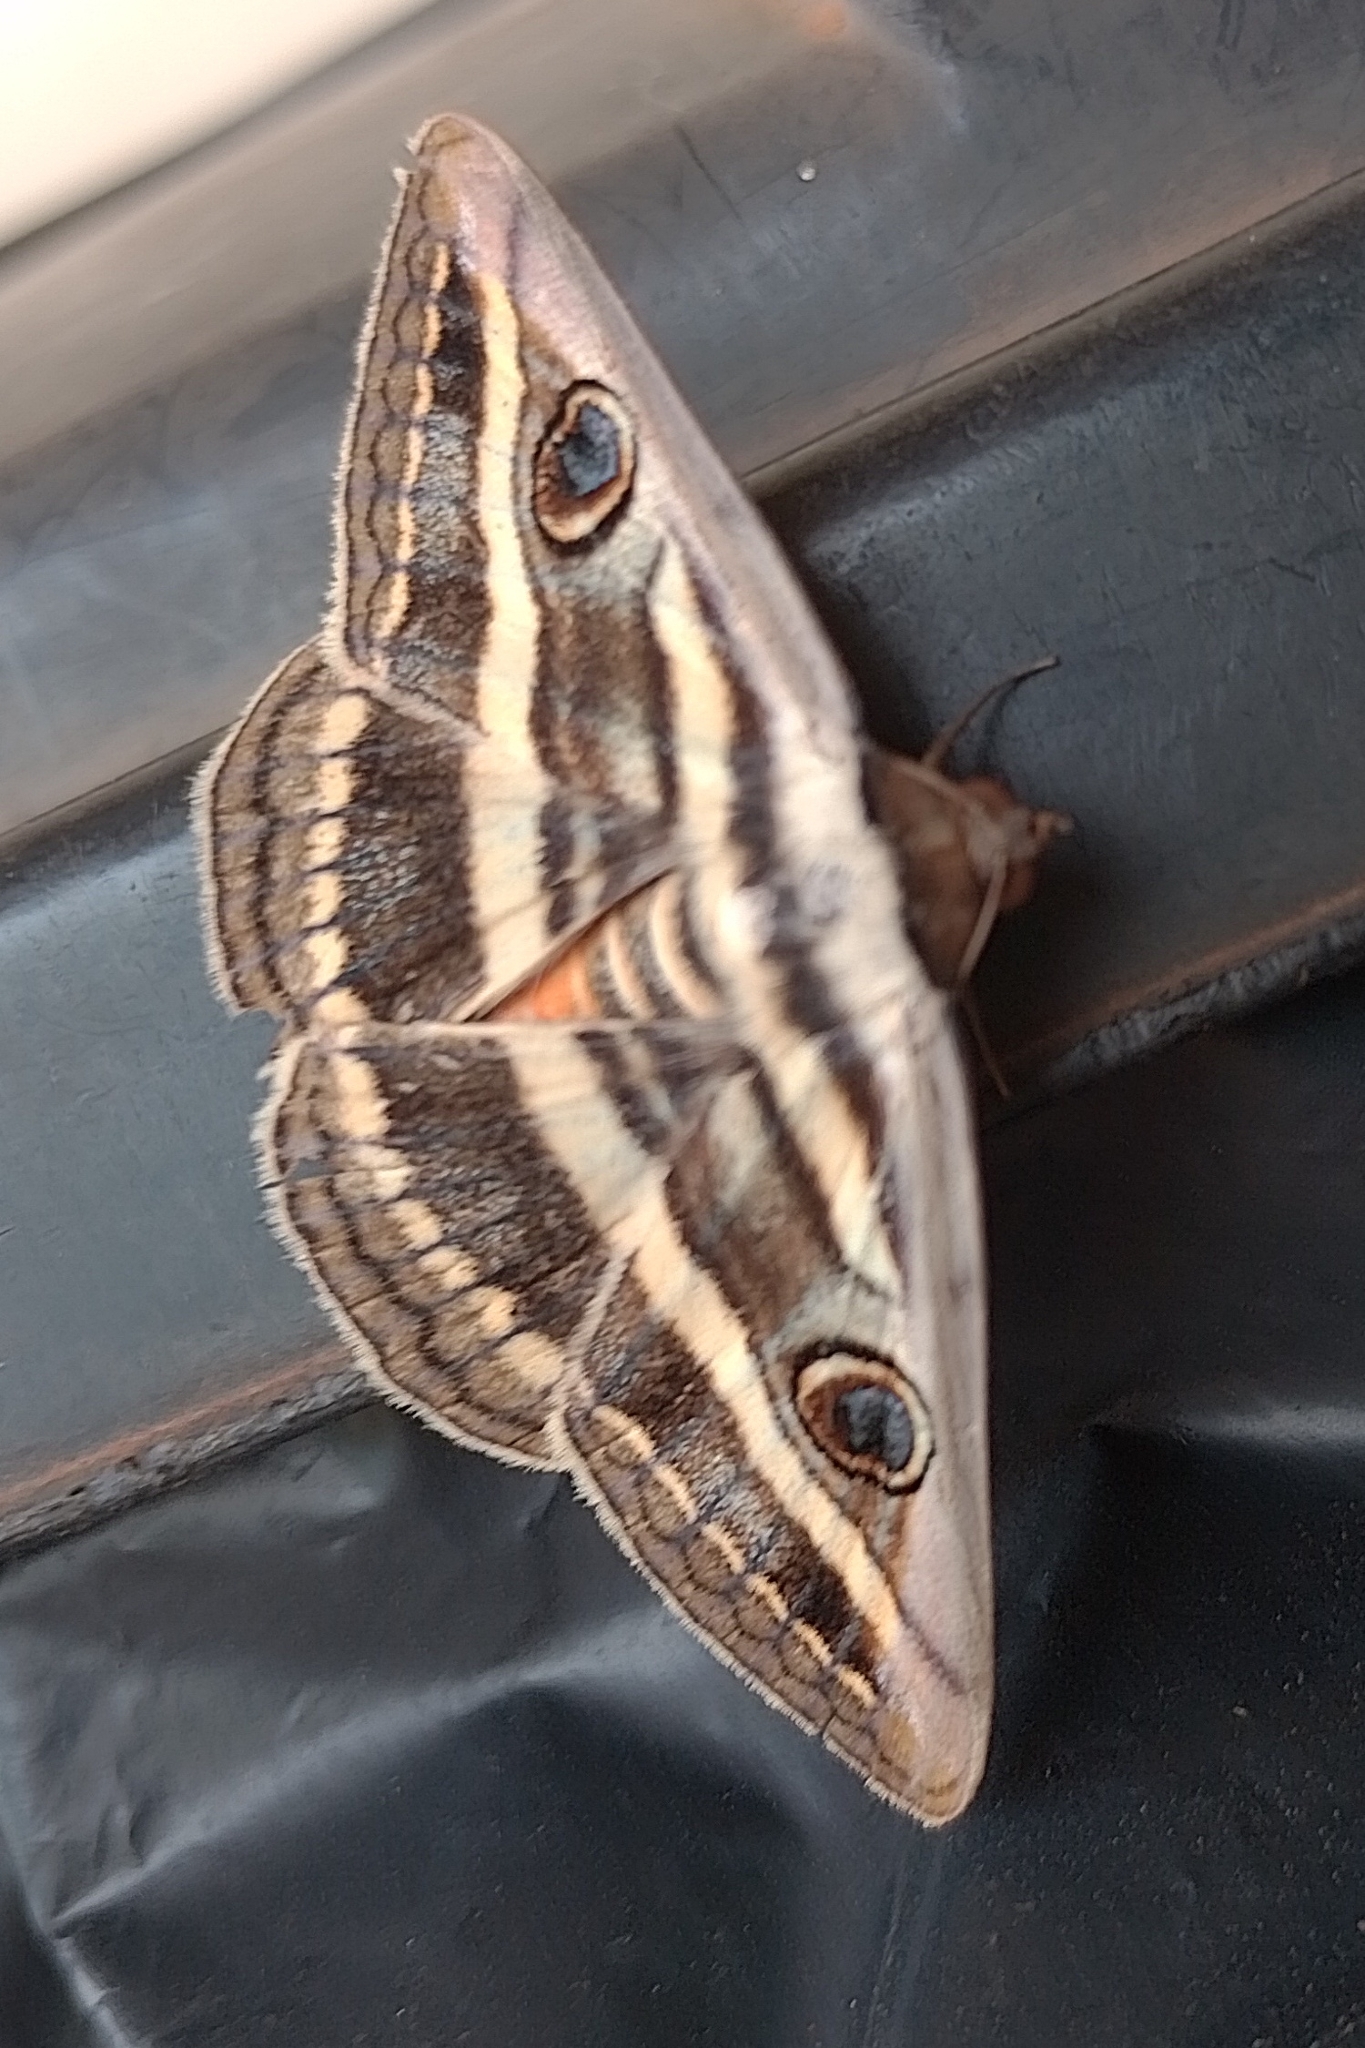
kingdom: Animalia
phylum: Arthropoda
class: Insecta
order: Lepidoptera
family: Erebidae
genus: Donuca
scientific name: Donuca orbigera
